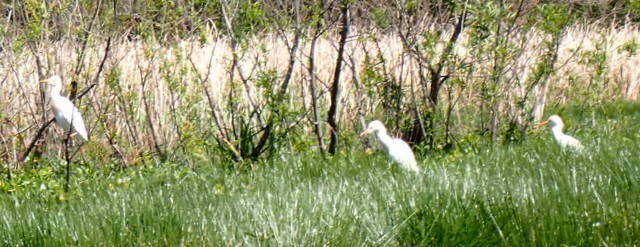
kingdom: Animalia
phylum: Chordata
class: Aves
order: Pelecaniformes
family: Ardeidae
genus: Bubulcus
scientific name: Bubulcus ibis
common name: Cattle egret
